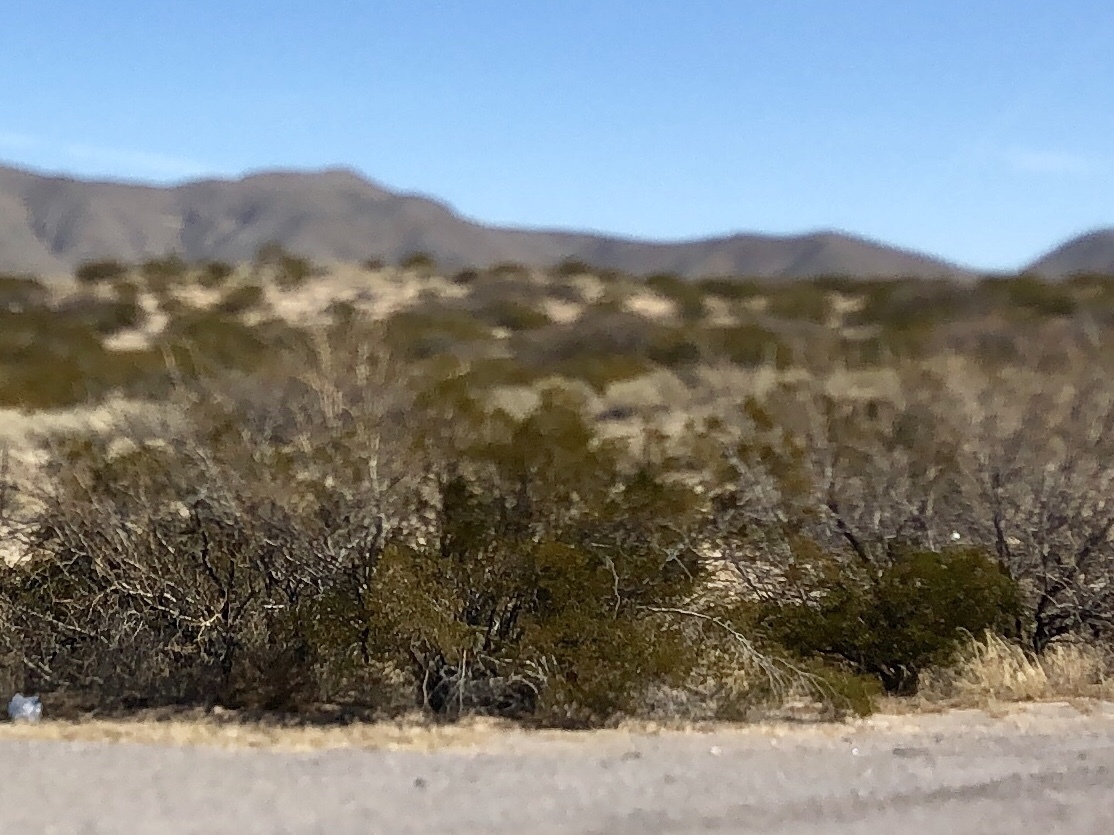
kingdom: Plantae
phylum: Tracheophyta
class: Magnoliopsida
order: Zygophyllales
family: Zygophyllaceae
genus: Larrea
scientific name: Larrea tridentata
